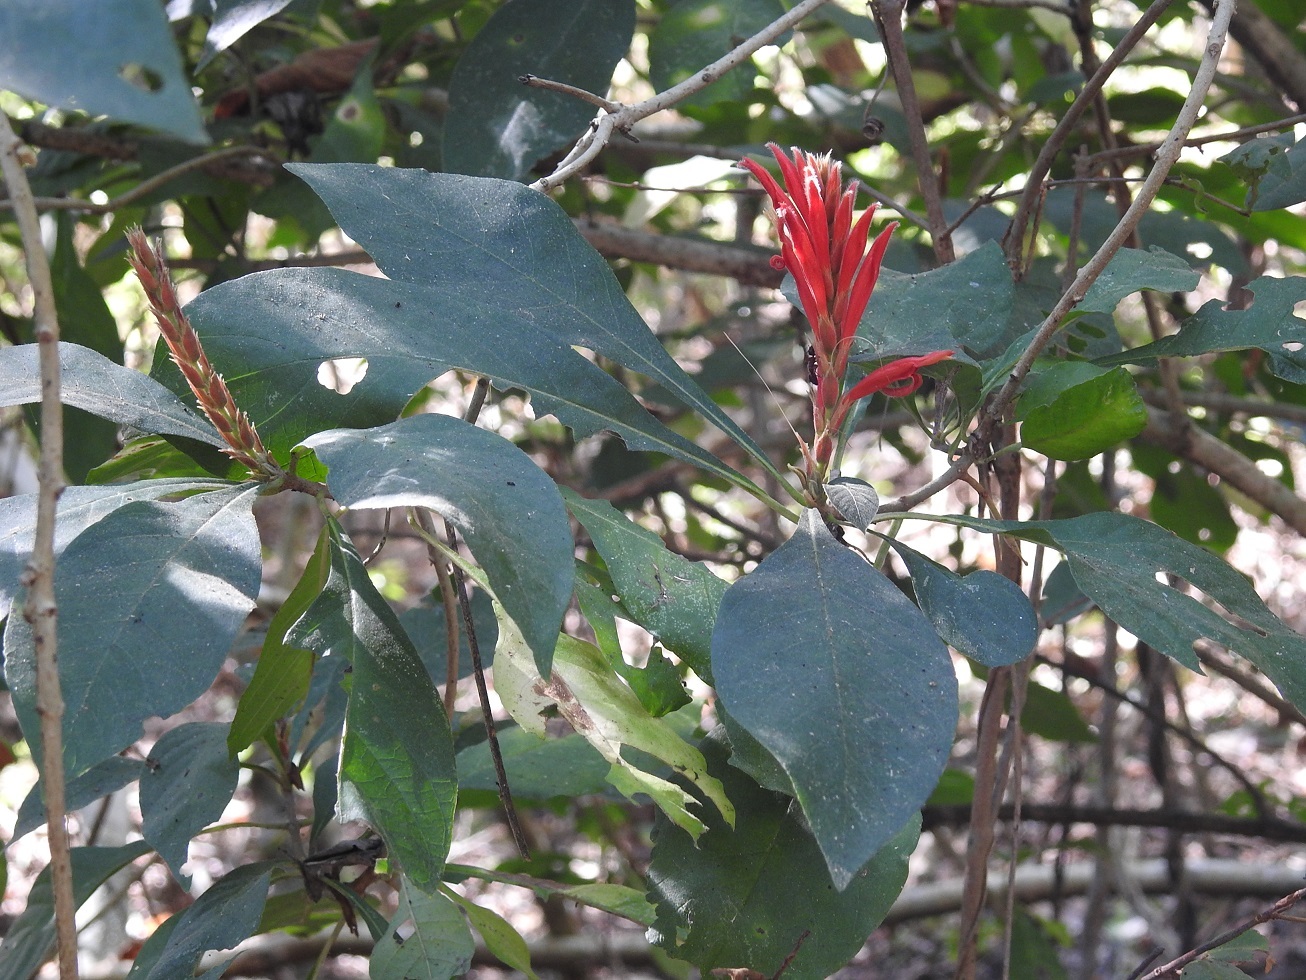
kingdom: Plantae
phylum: Tracheophyta
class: Magnoliopsida
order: Lamiales
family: Acanthaceae
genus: Aphelandra
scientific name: Aphelandra scabra
